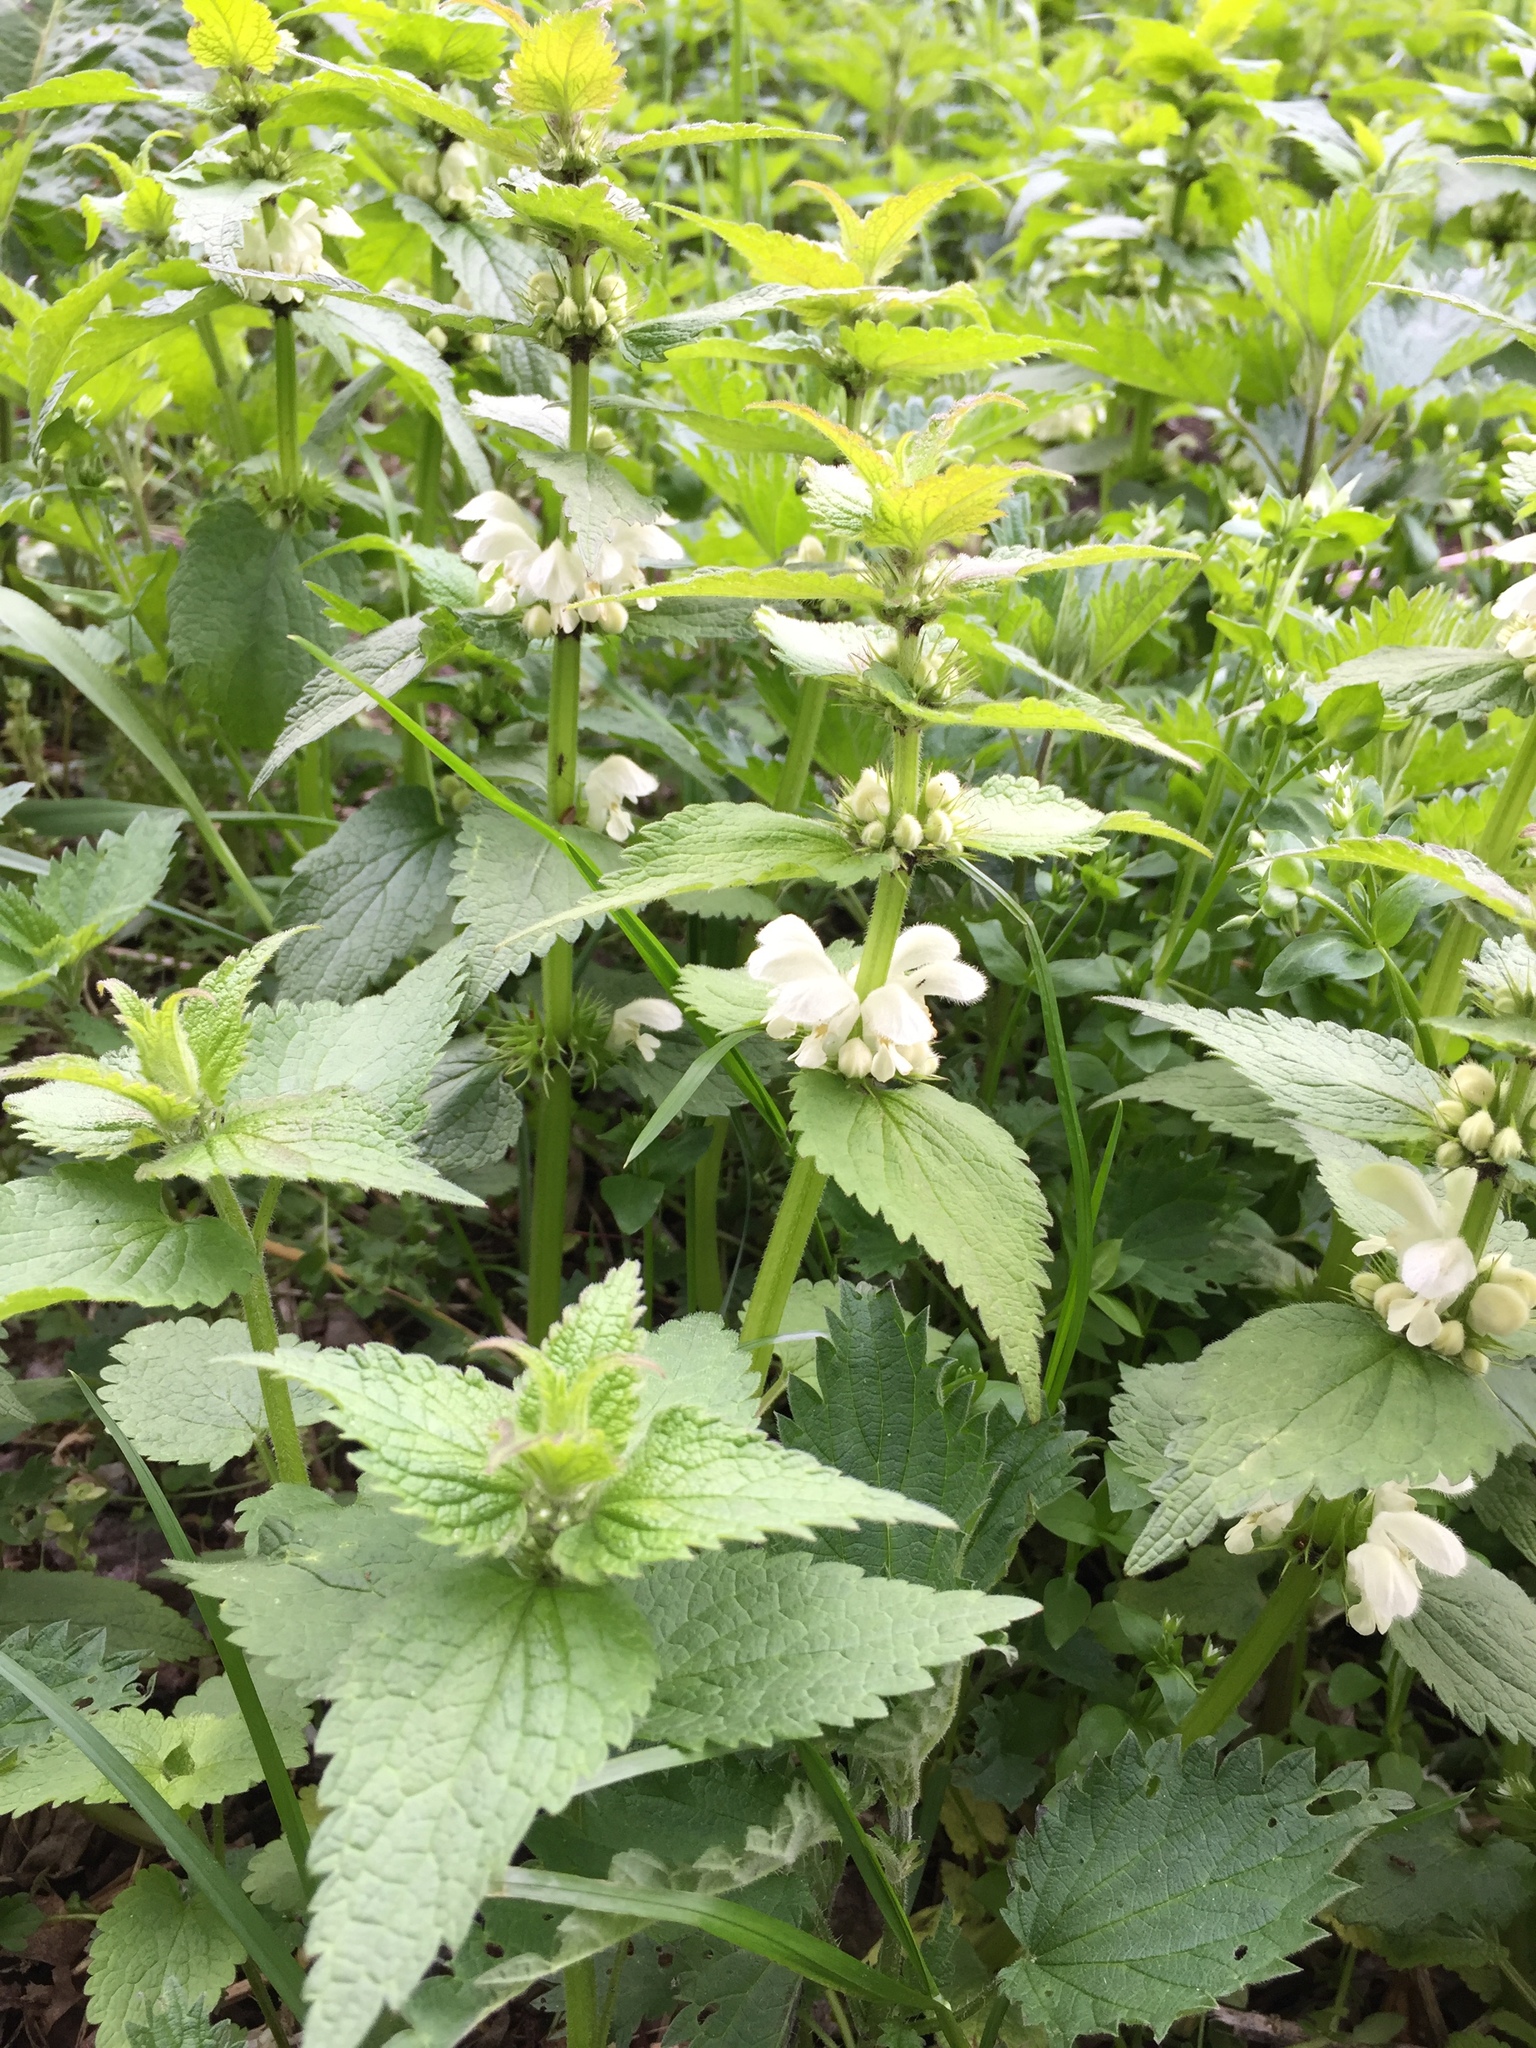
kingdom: Plantae
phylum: Tracheophyta
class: Magnoliopsida
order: Lamiales
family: Lamiaceae
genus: Lamium
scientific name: Lamium album
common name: White dead-nettle
